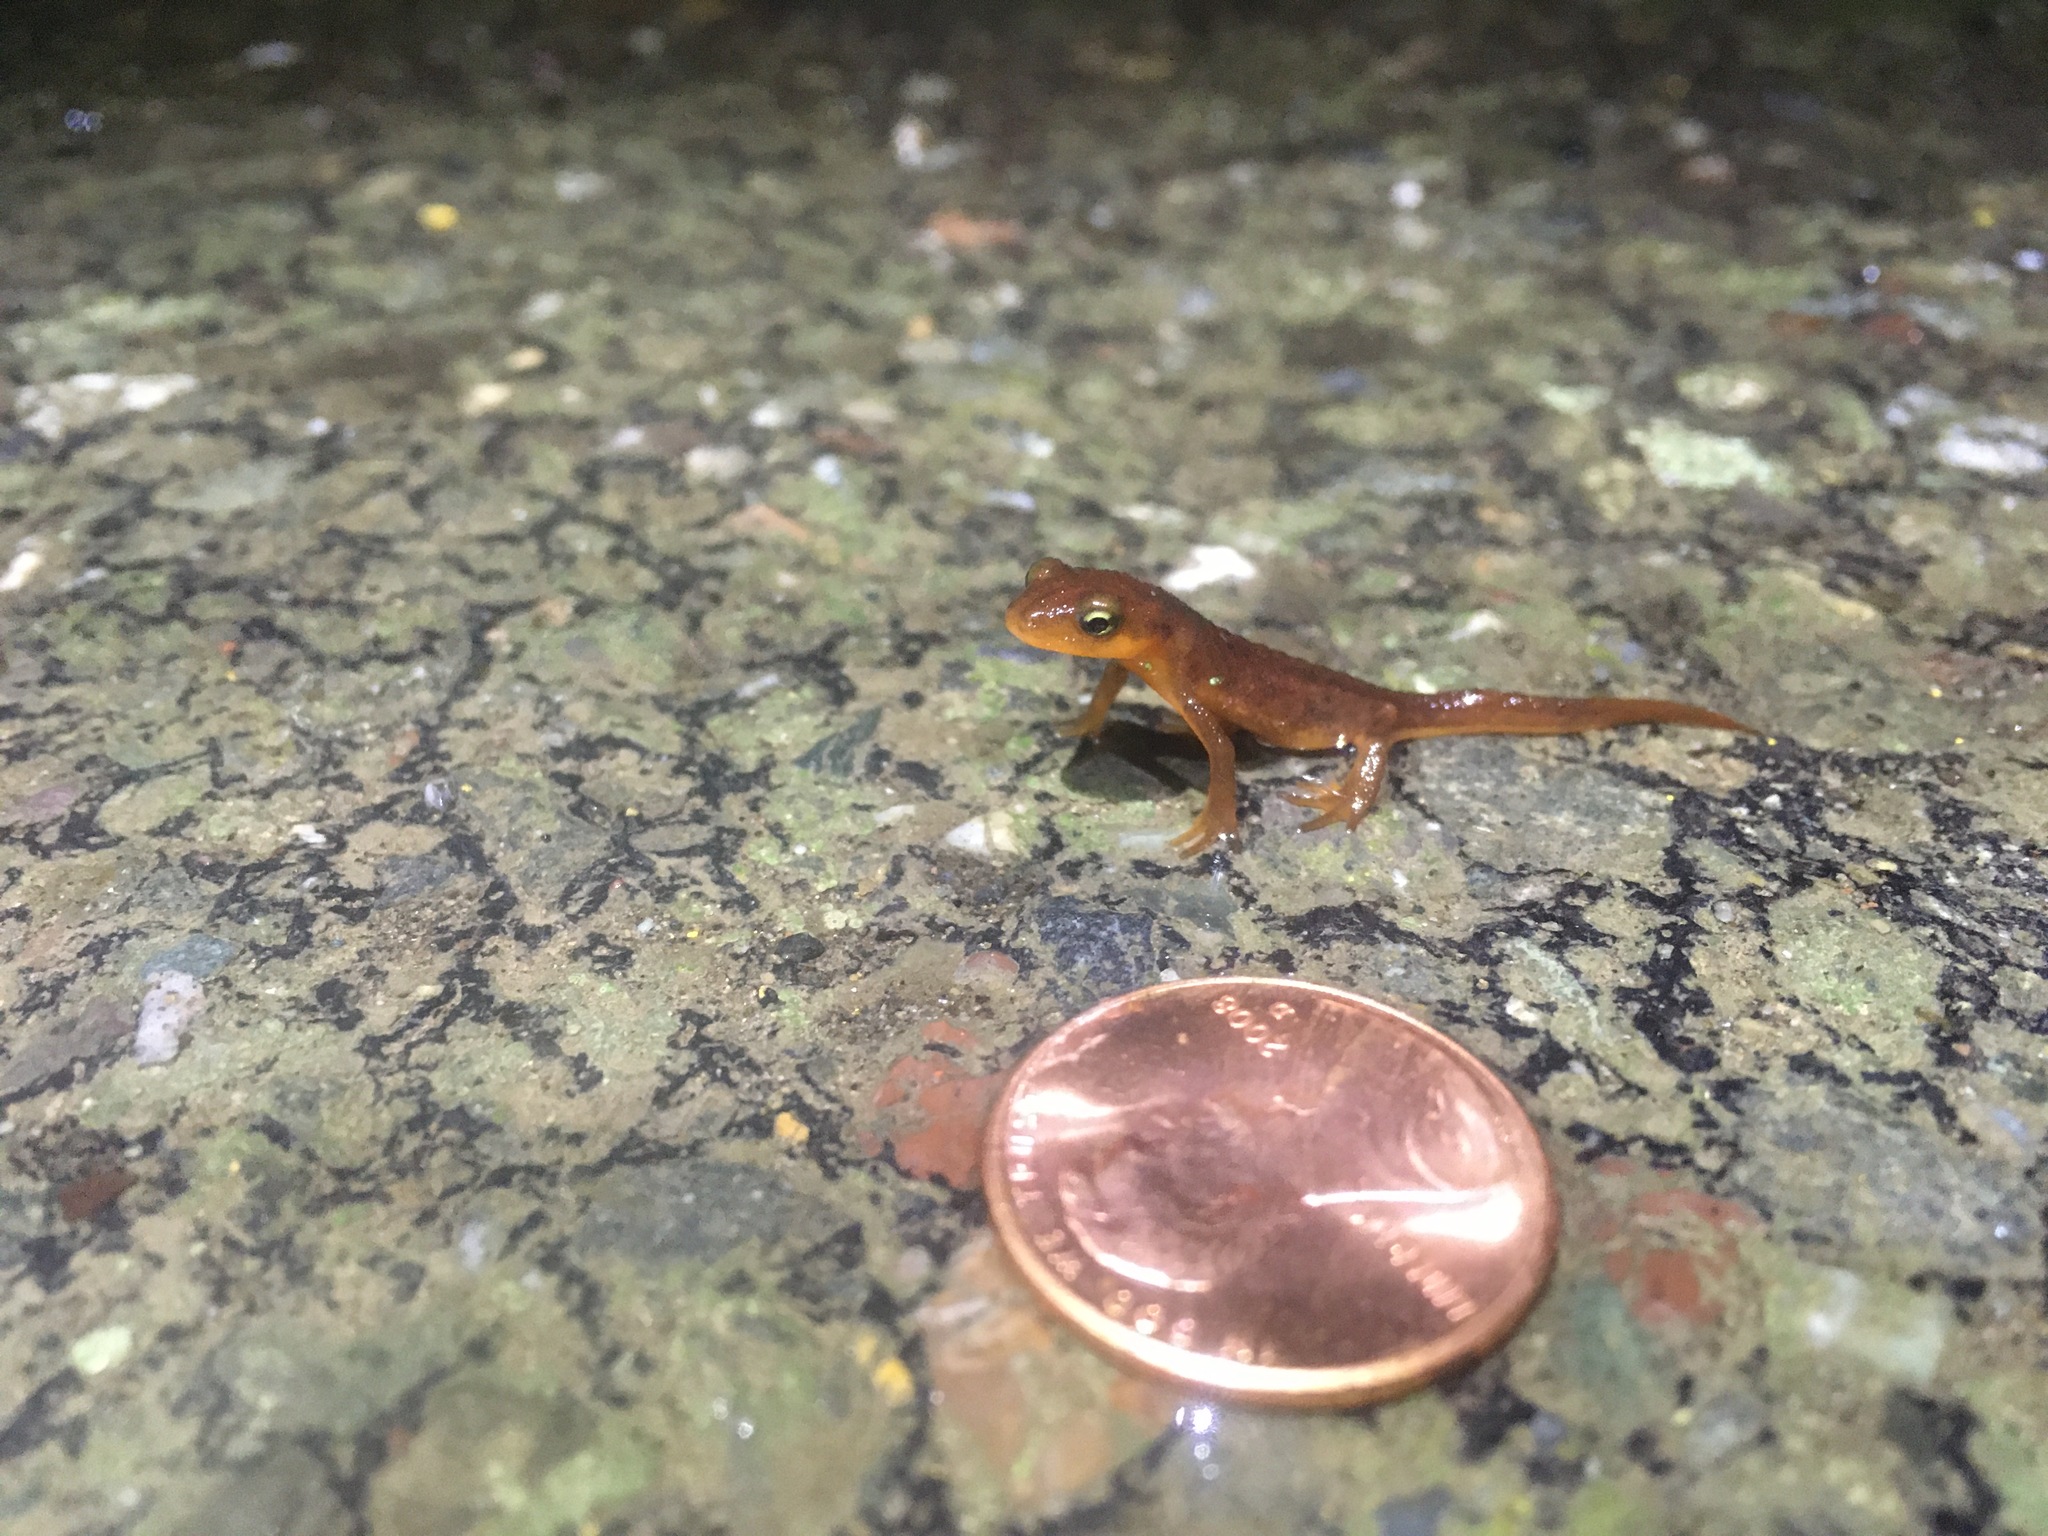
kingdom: Animalia
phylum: Chordata
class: Amphibia
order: Caudata
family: Salamandridae
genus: Taricha
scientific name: Taricha torosa
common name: California newt
